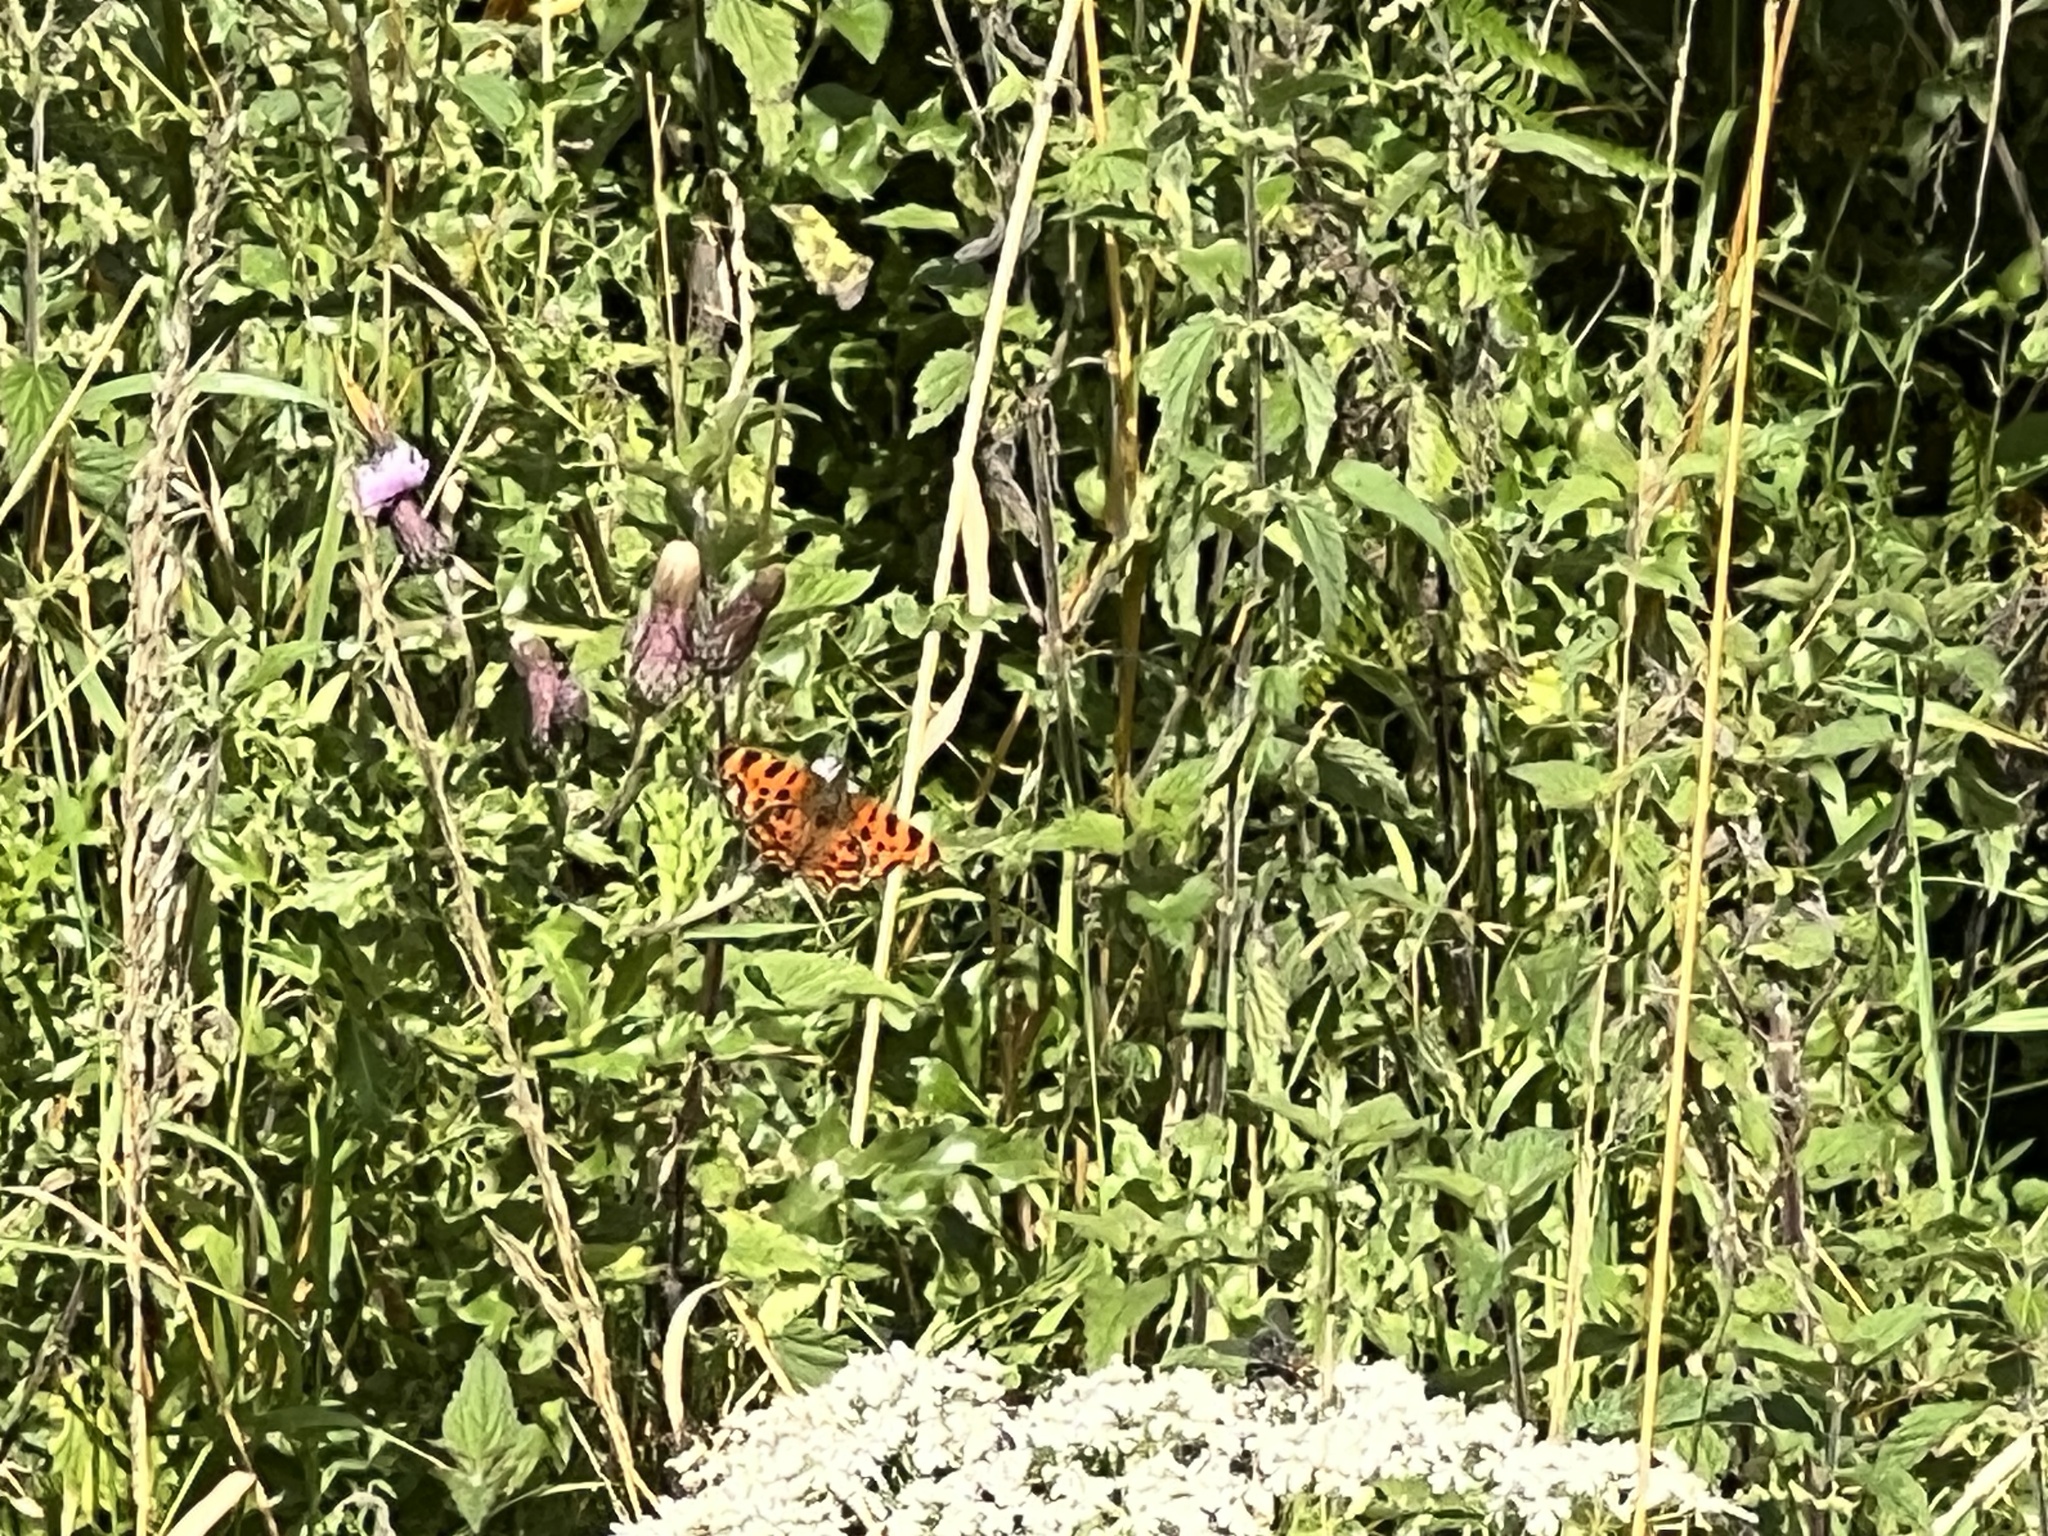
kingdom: Animalia
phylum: Arthropoda
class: Insecta
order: Lepidoptera
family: Nymphalidae
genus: Polygonia
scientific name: Polygonia c-album
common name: Comma
